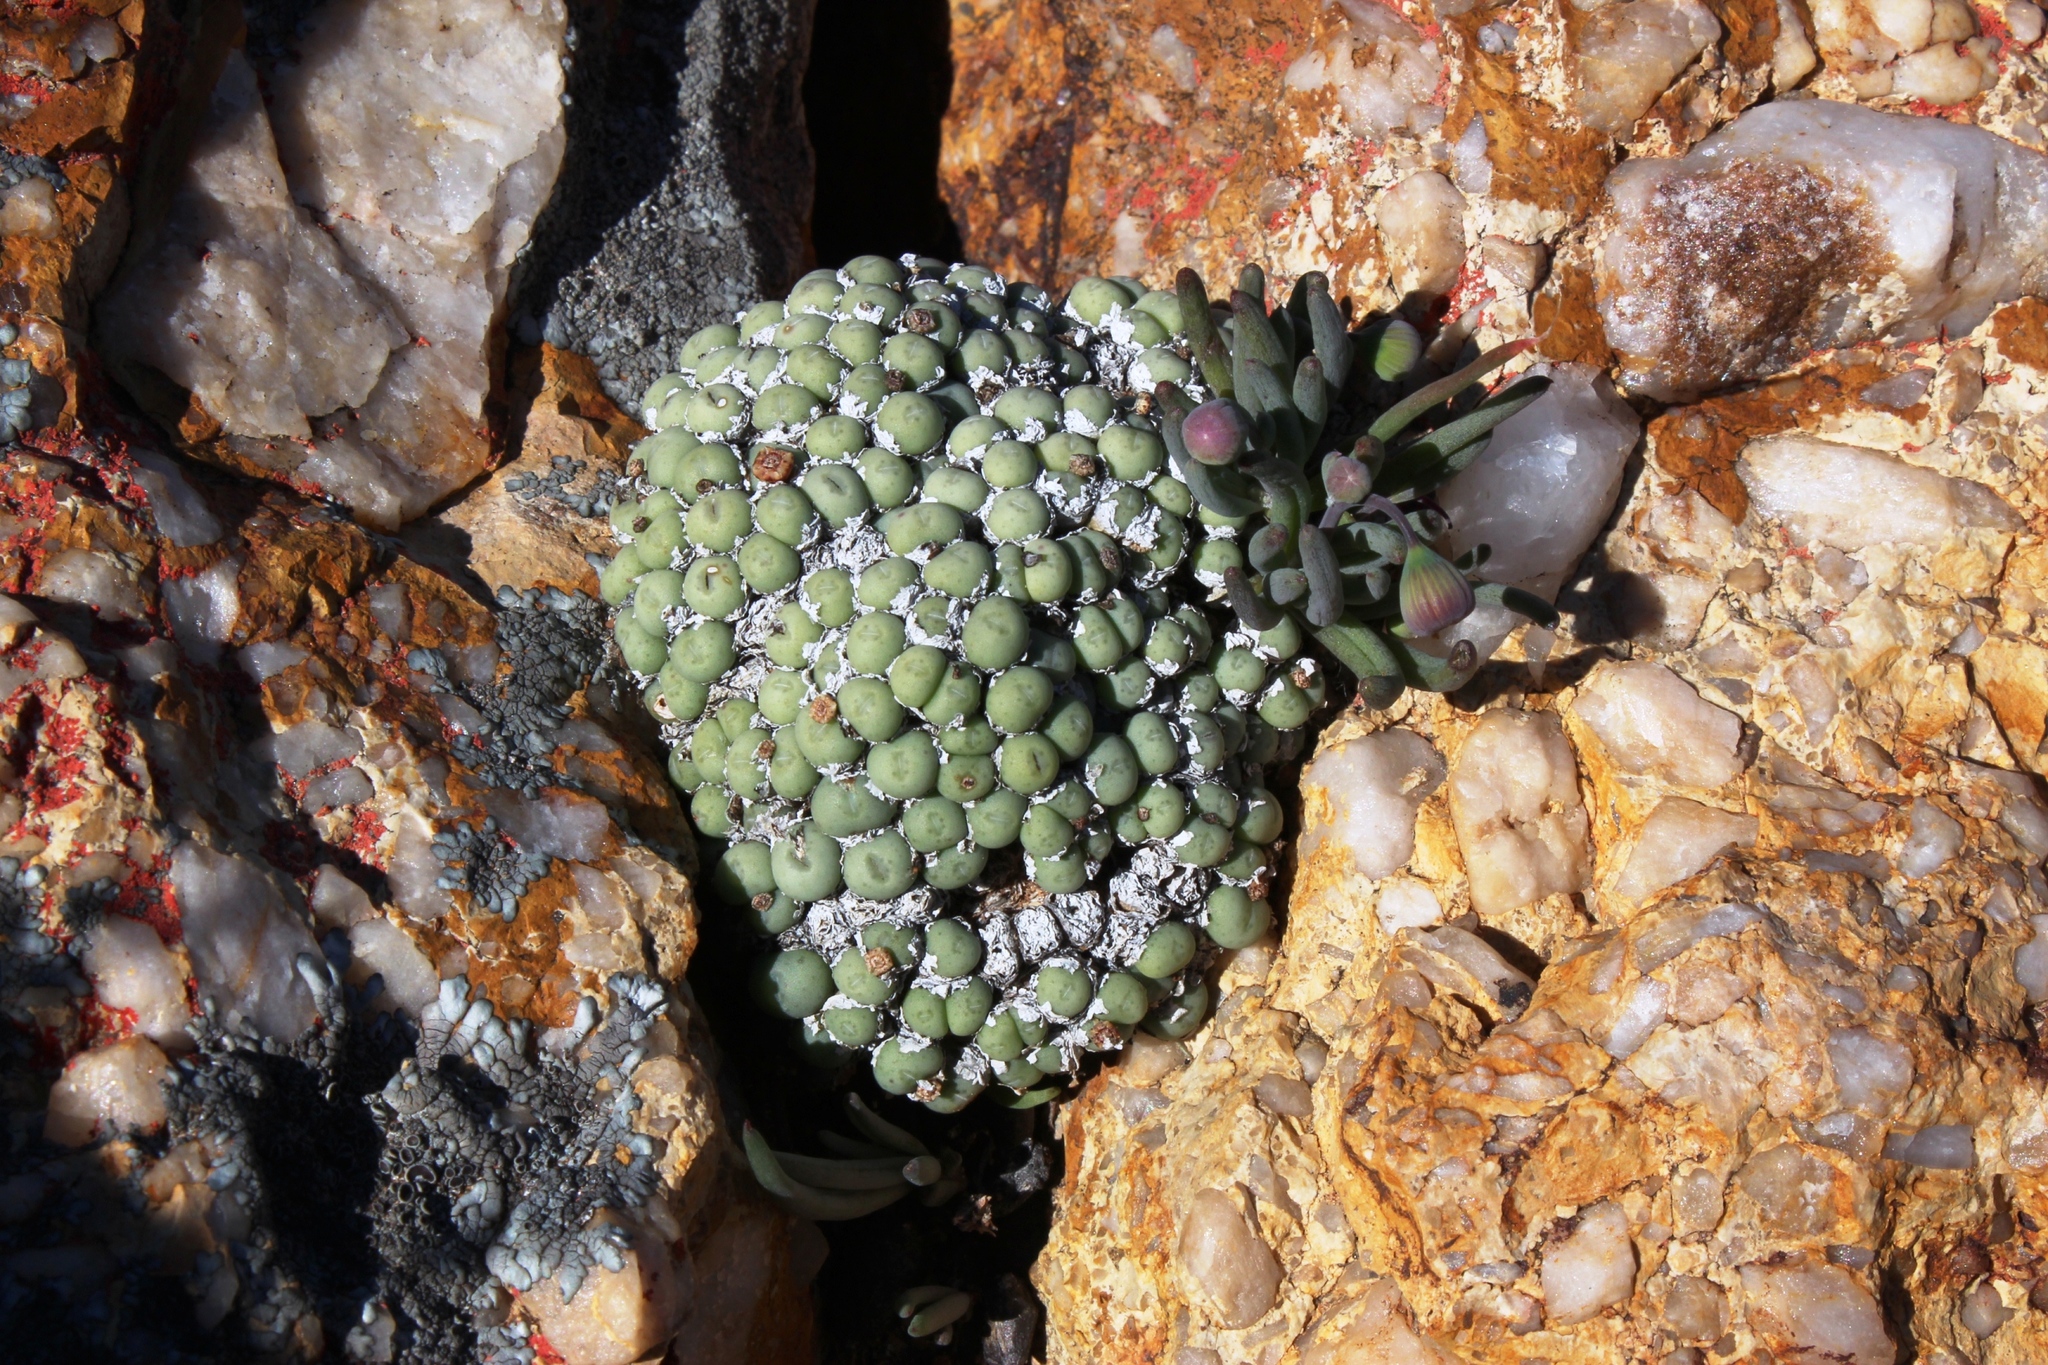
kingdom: Plantae
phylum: Tracheophyta
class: Magnoliopsida
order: Caryophyllales
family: Aizoaceae
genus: Conophytum
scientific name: Conophytum minutum
